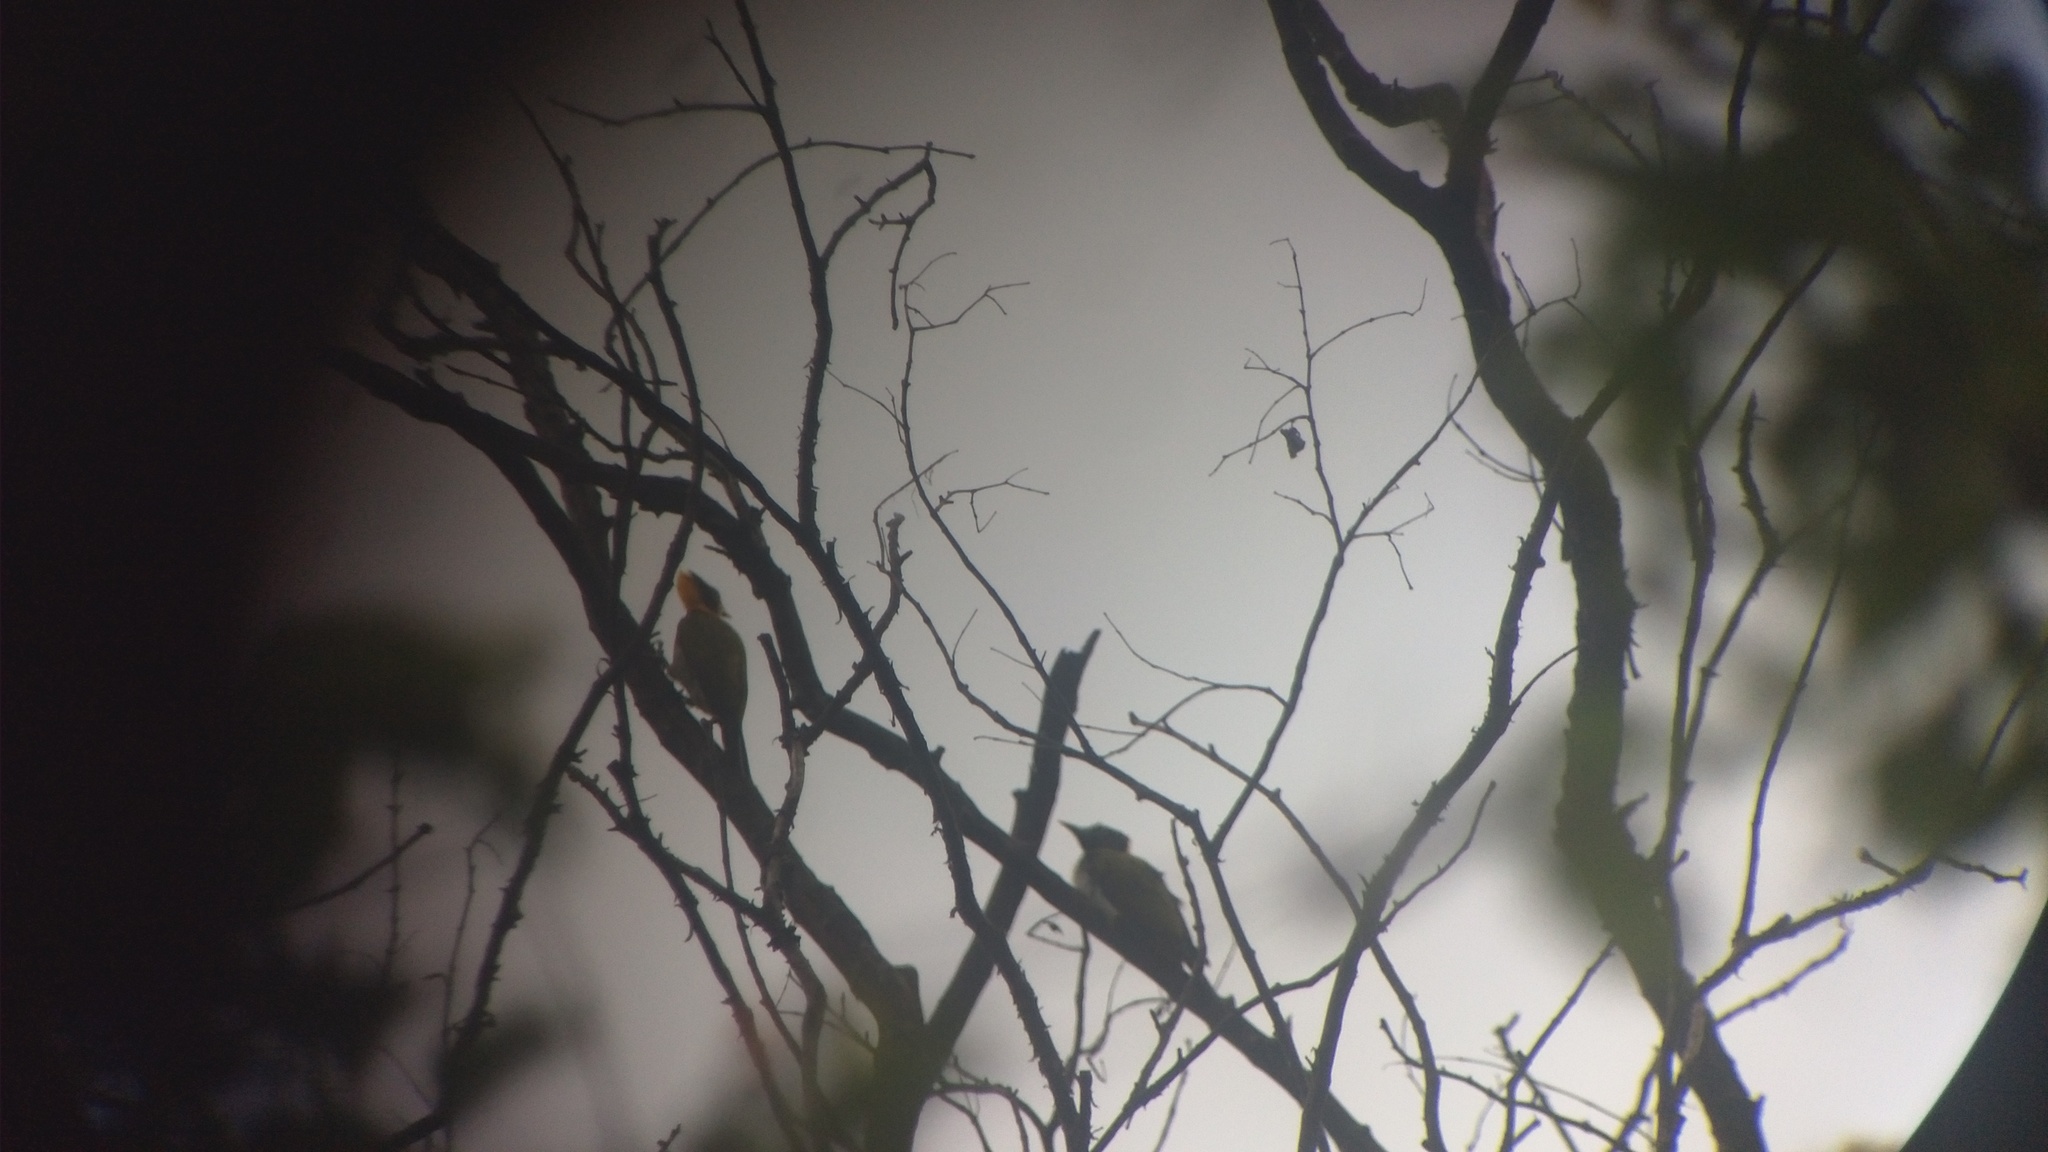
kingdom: Animalia
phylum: Chordata
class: Aves
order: Piciformes
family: Picidae
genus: Chrysophlegma
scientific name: Chrysophlegma flavinucha
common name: Greater yellownape
